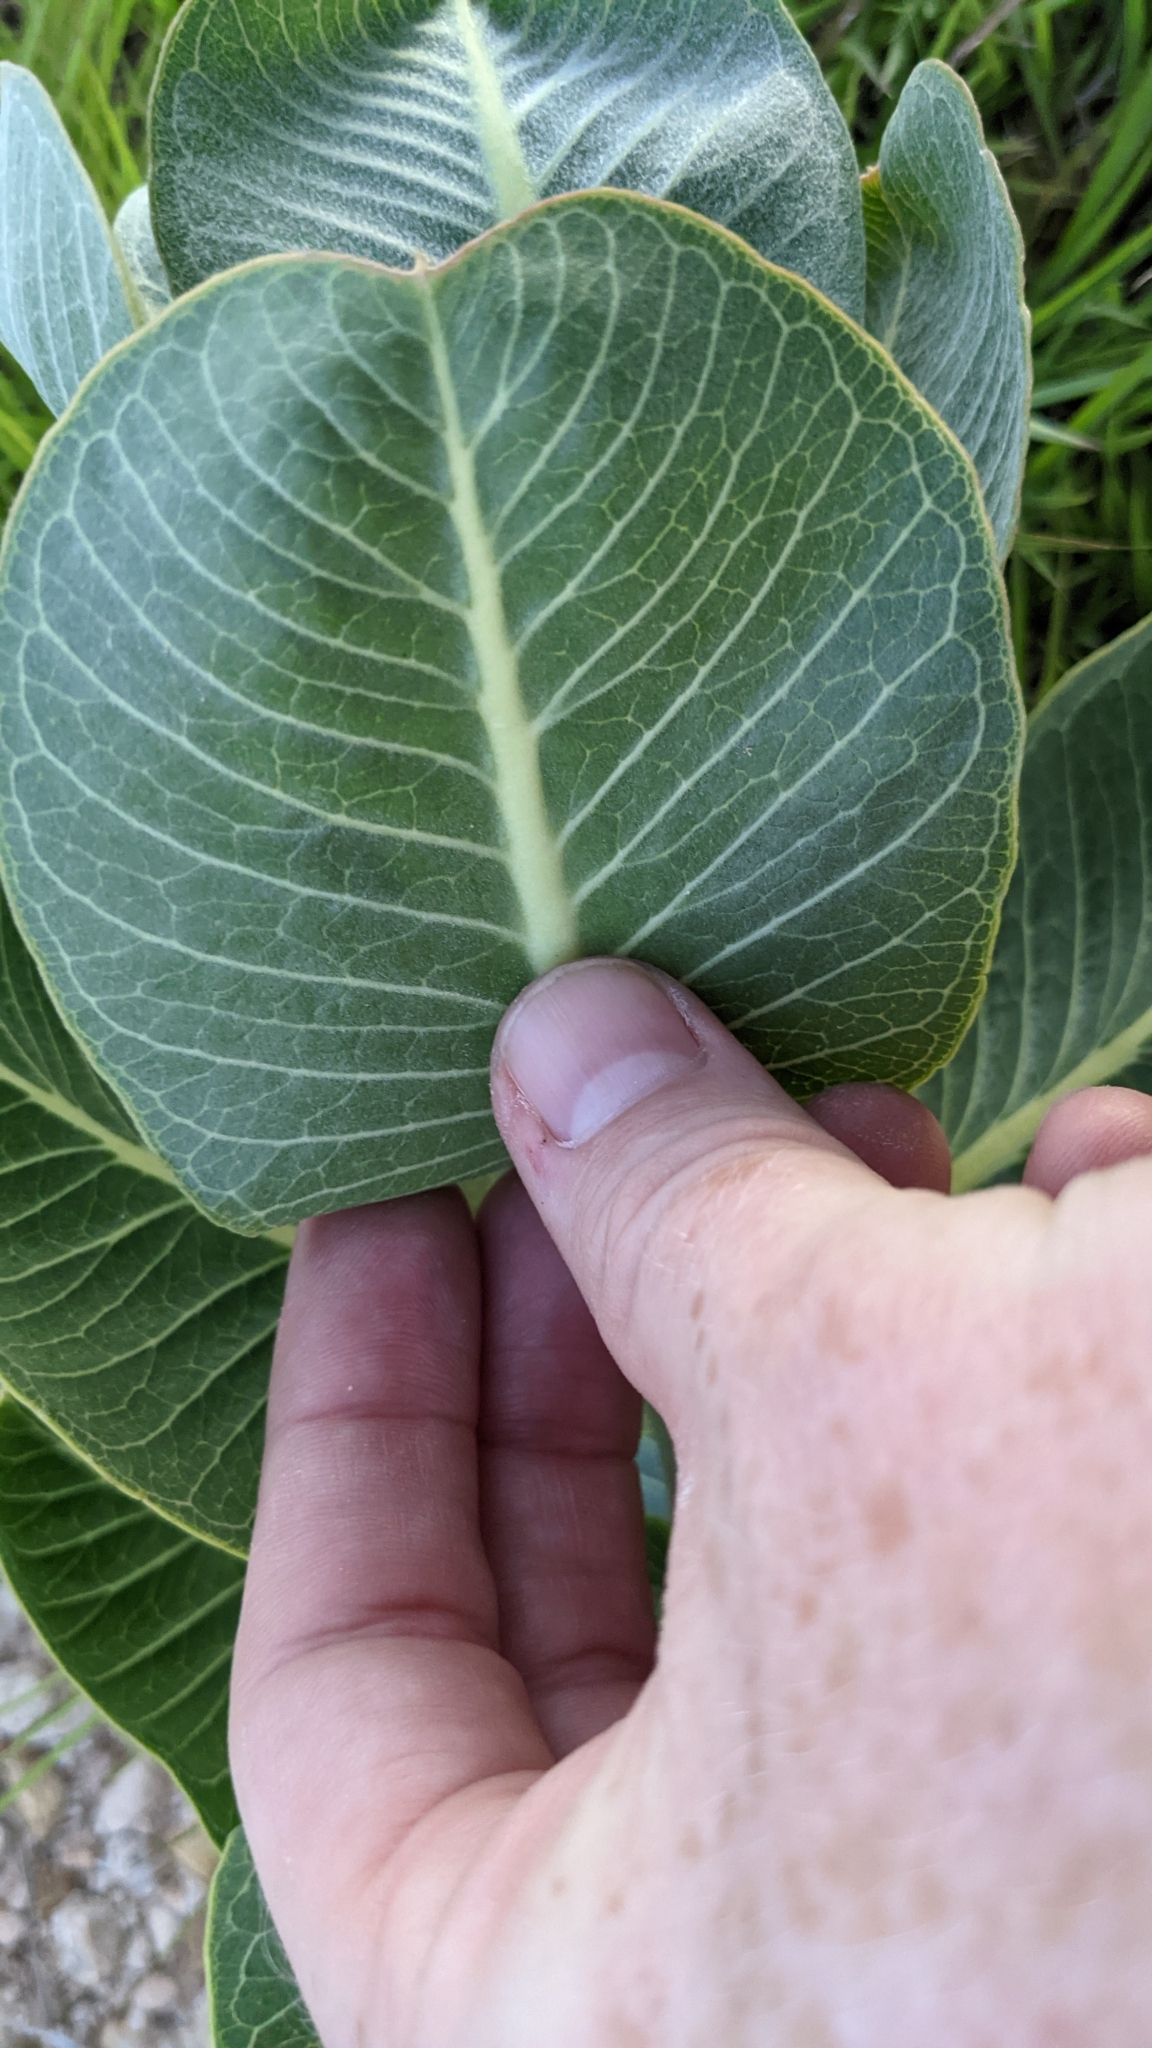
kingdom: Plantae
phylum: Tracheophyta
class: Magnoliopsida
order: Gentianales
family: Apocynaceae
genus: Asclepias
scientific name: Asclepias latifolia
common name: Broadleaf milkweed
